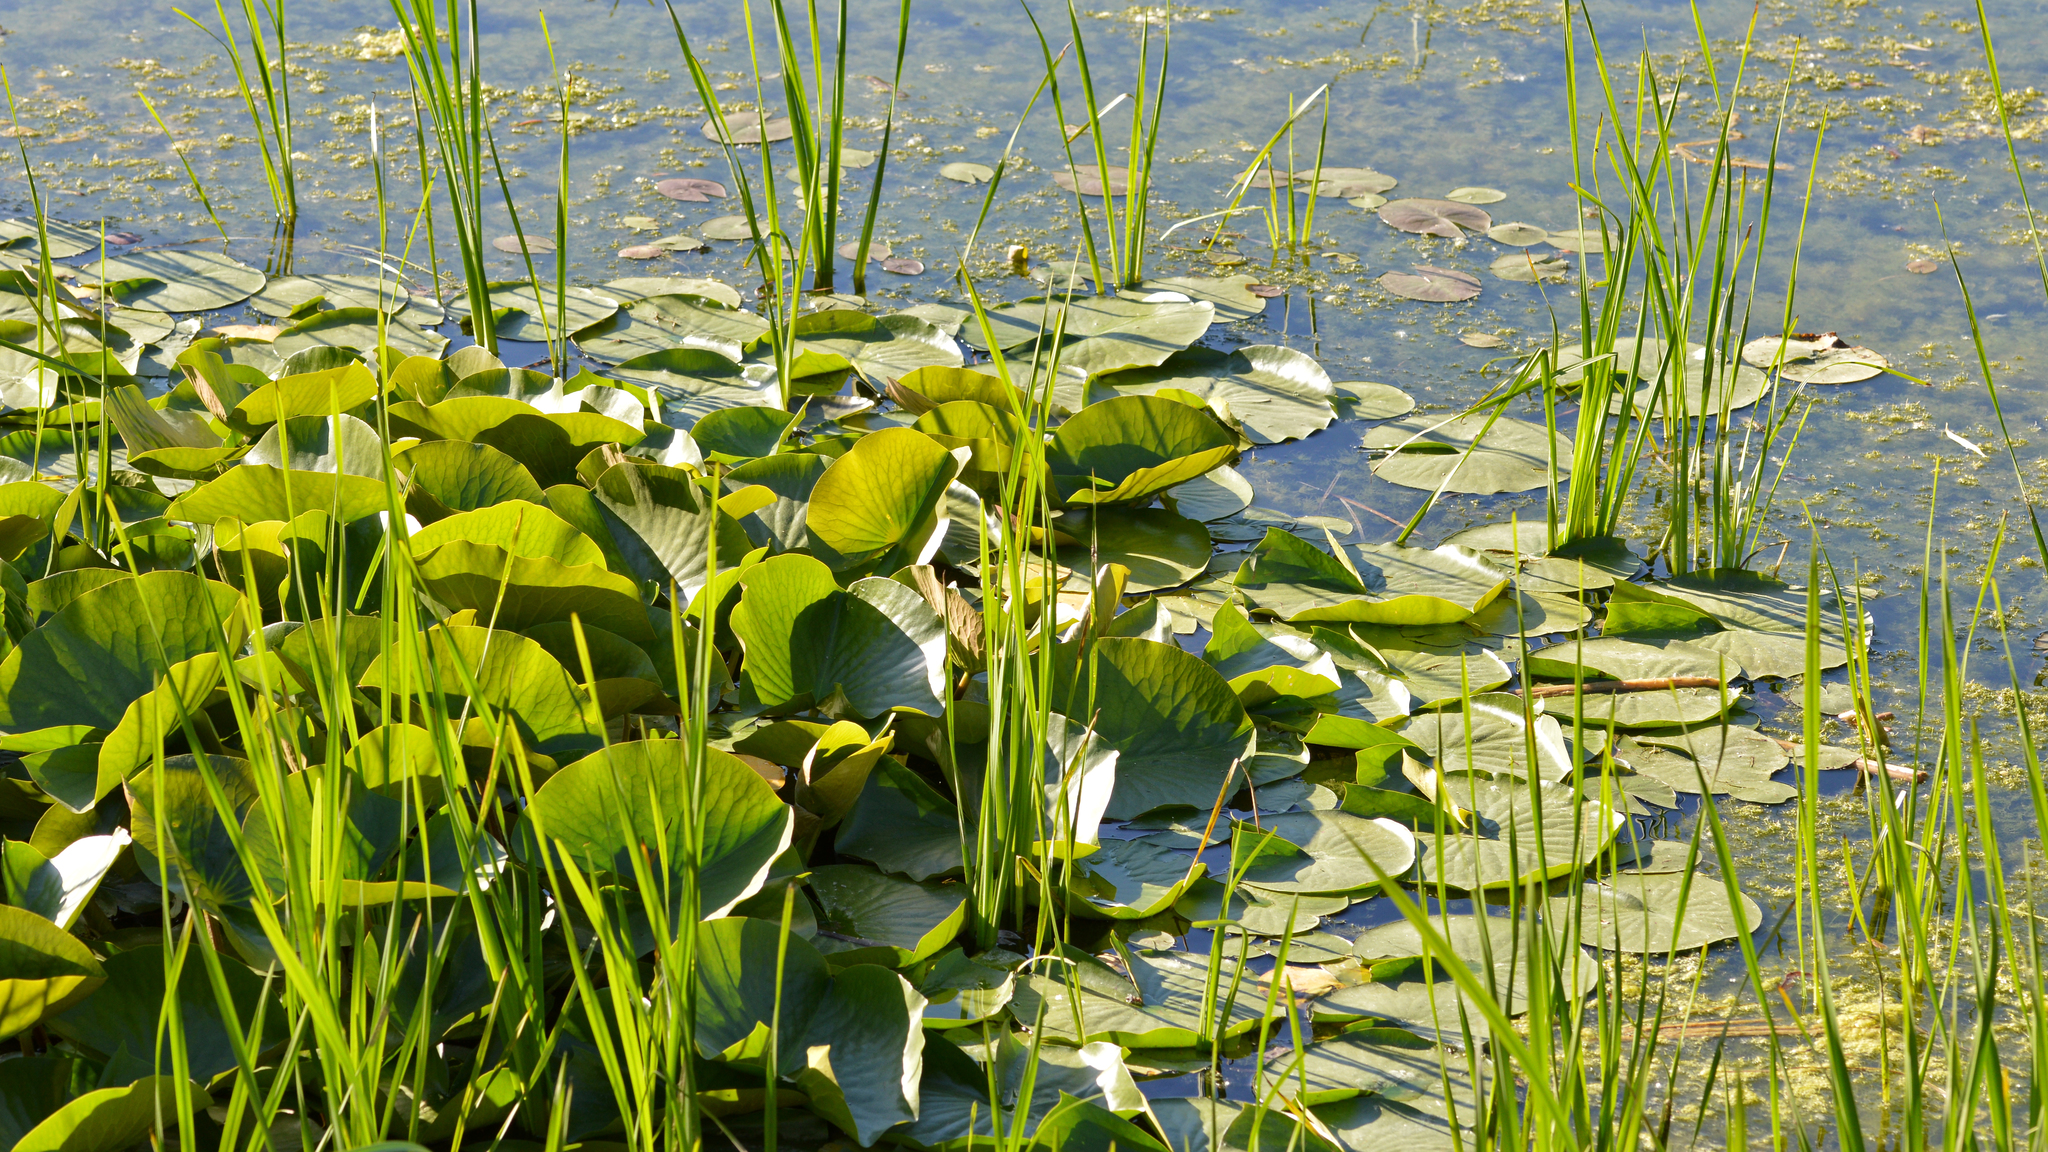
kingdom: Plantae
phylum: Tracheophyta
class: Magnoliopsida
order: Nymphaeales
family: Nymphaeaceae
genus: Nymphaea
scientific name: Nymphaea odorata
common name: Fragrant water-lily
